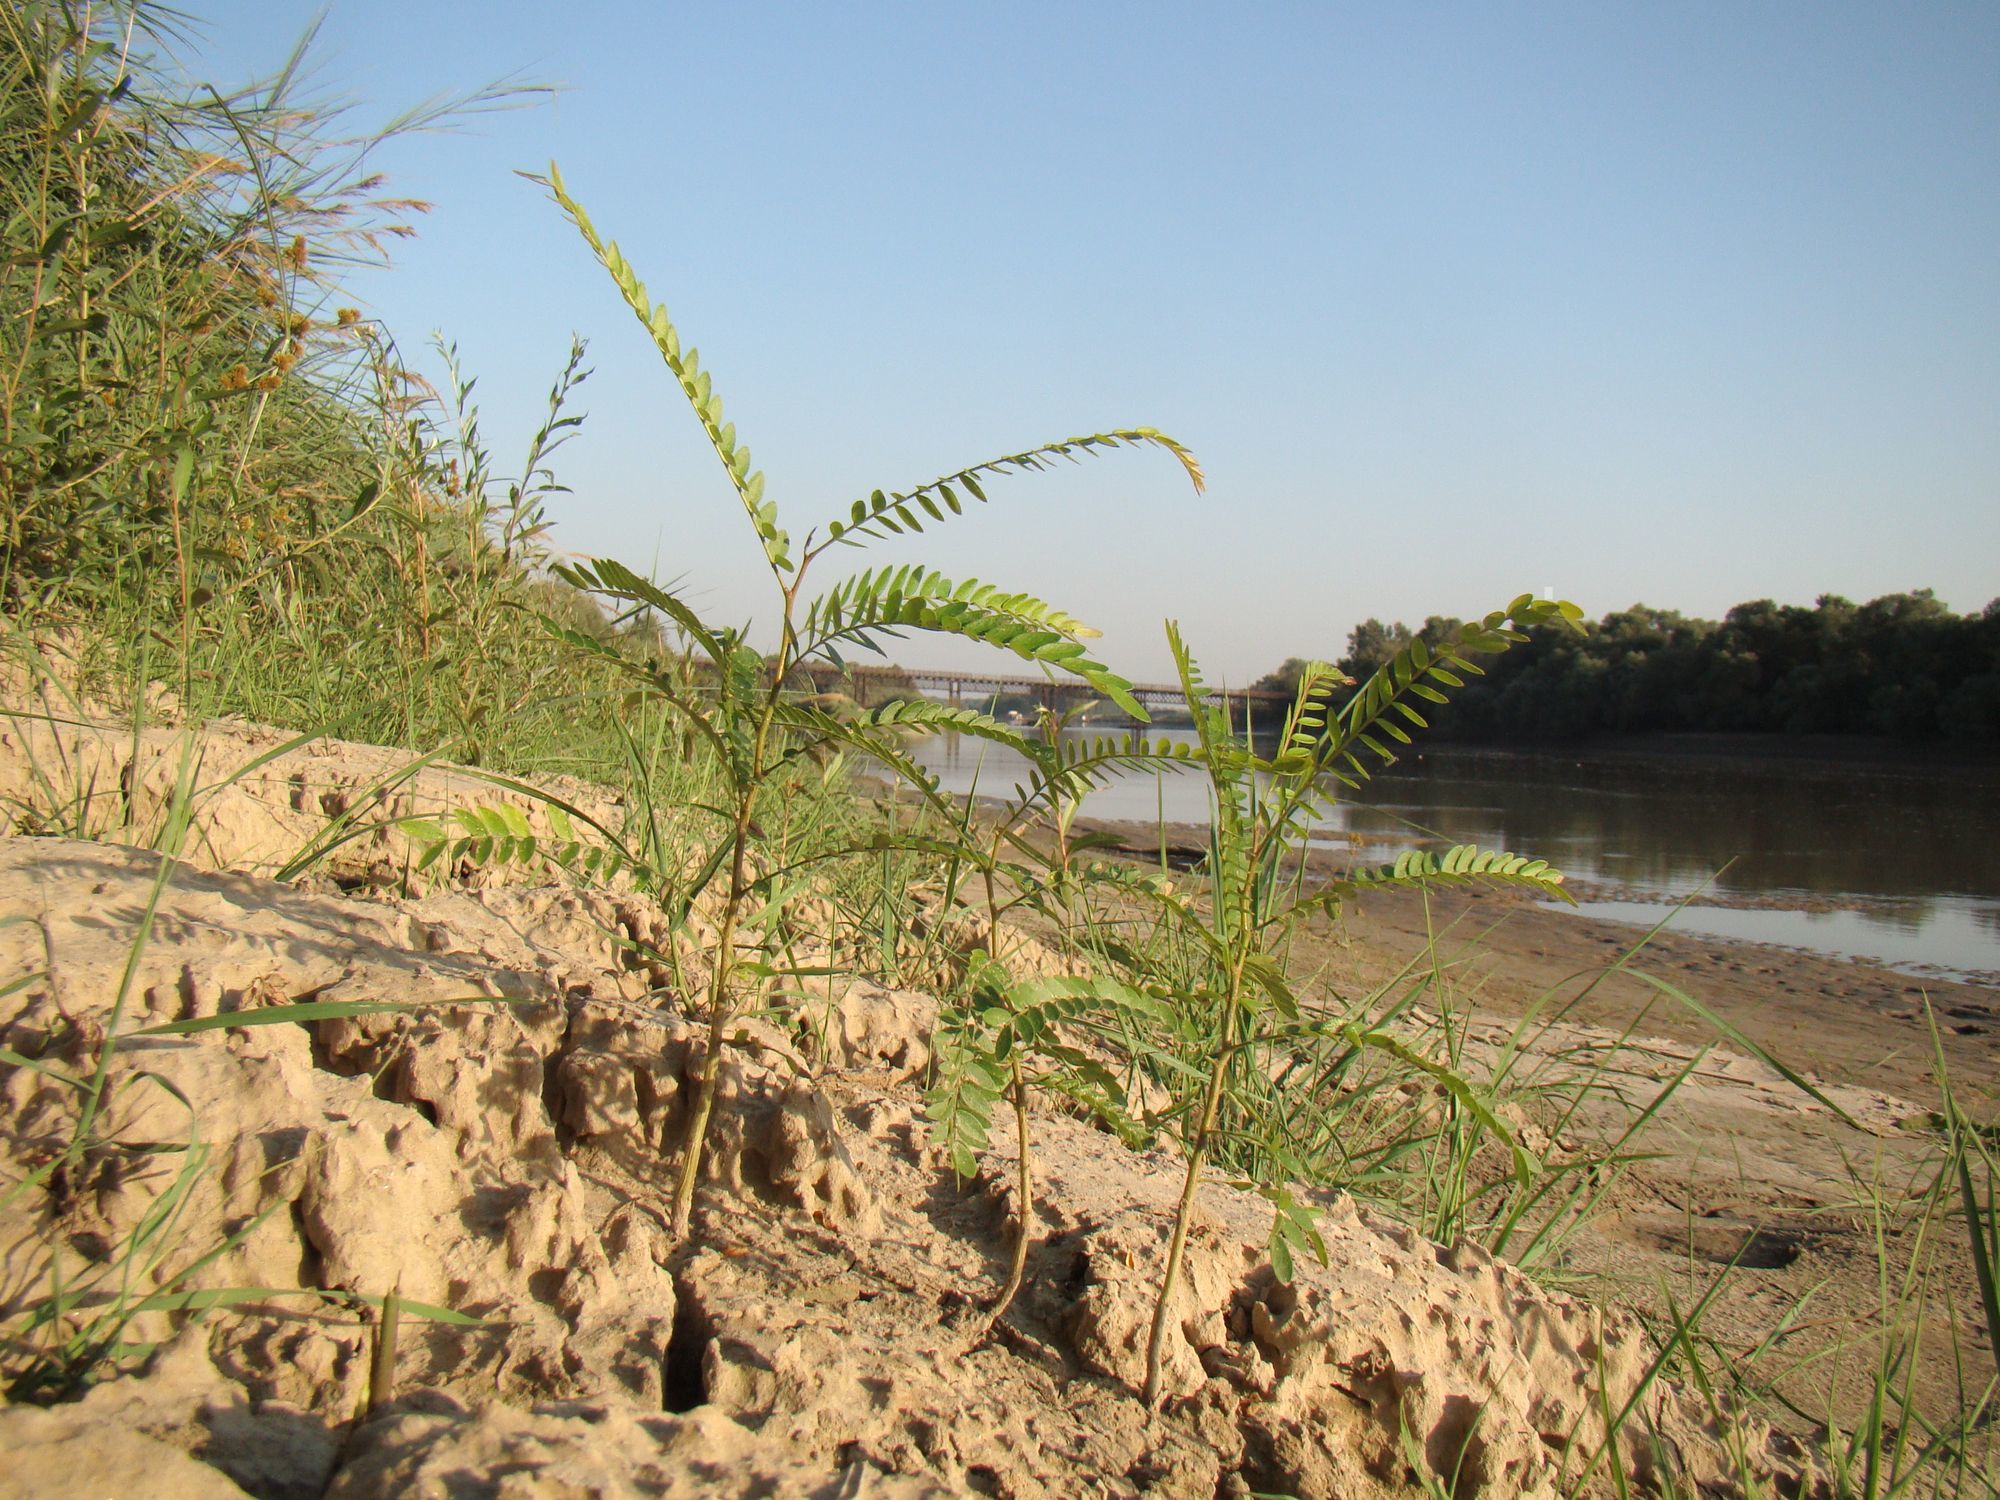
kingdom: Plantae
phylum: Tracheophyta
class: Magnoliopsida
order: Fabales
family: Fabaceae
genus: Gleditsia
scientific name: Gleditsia triacanthos
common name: Common honeylocust
